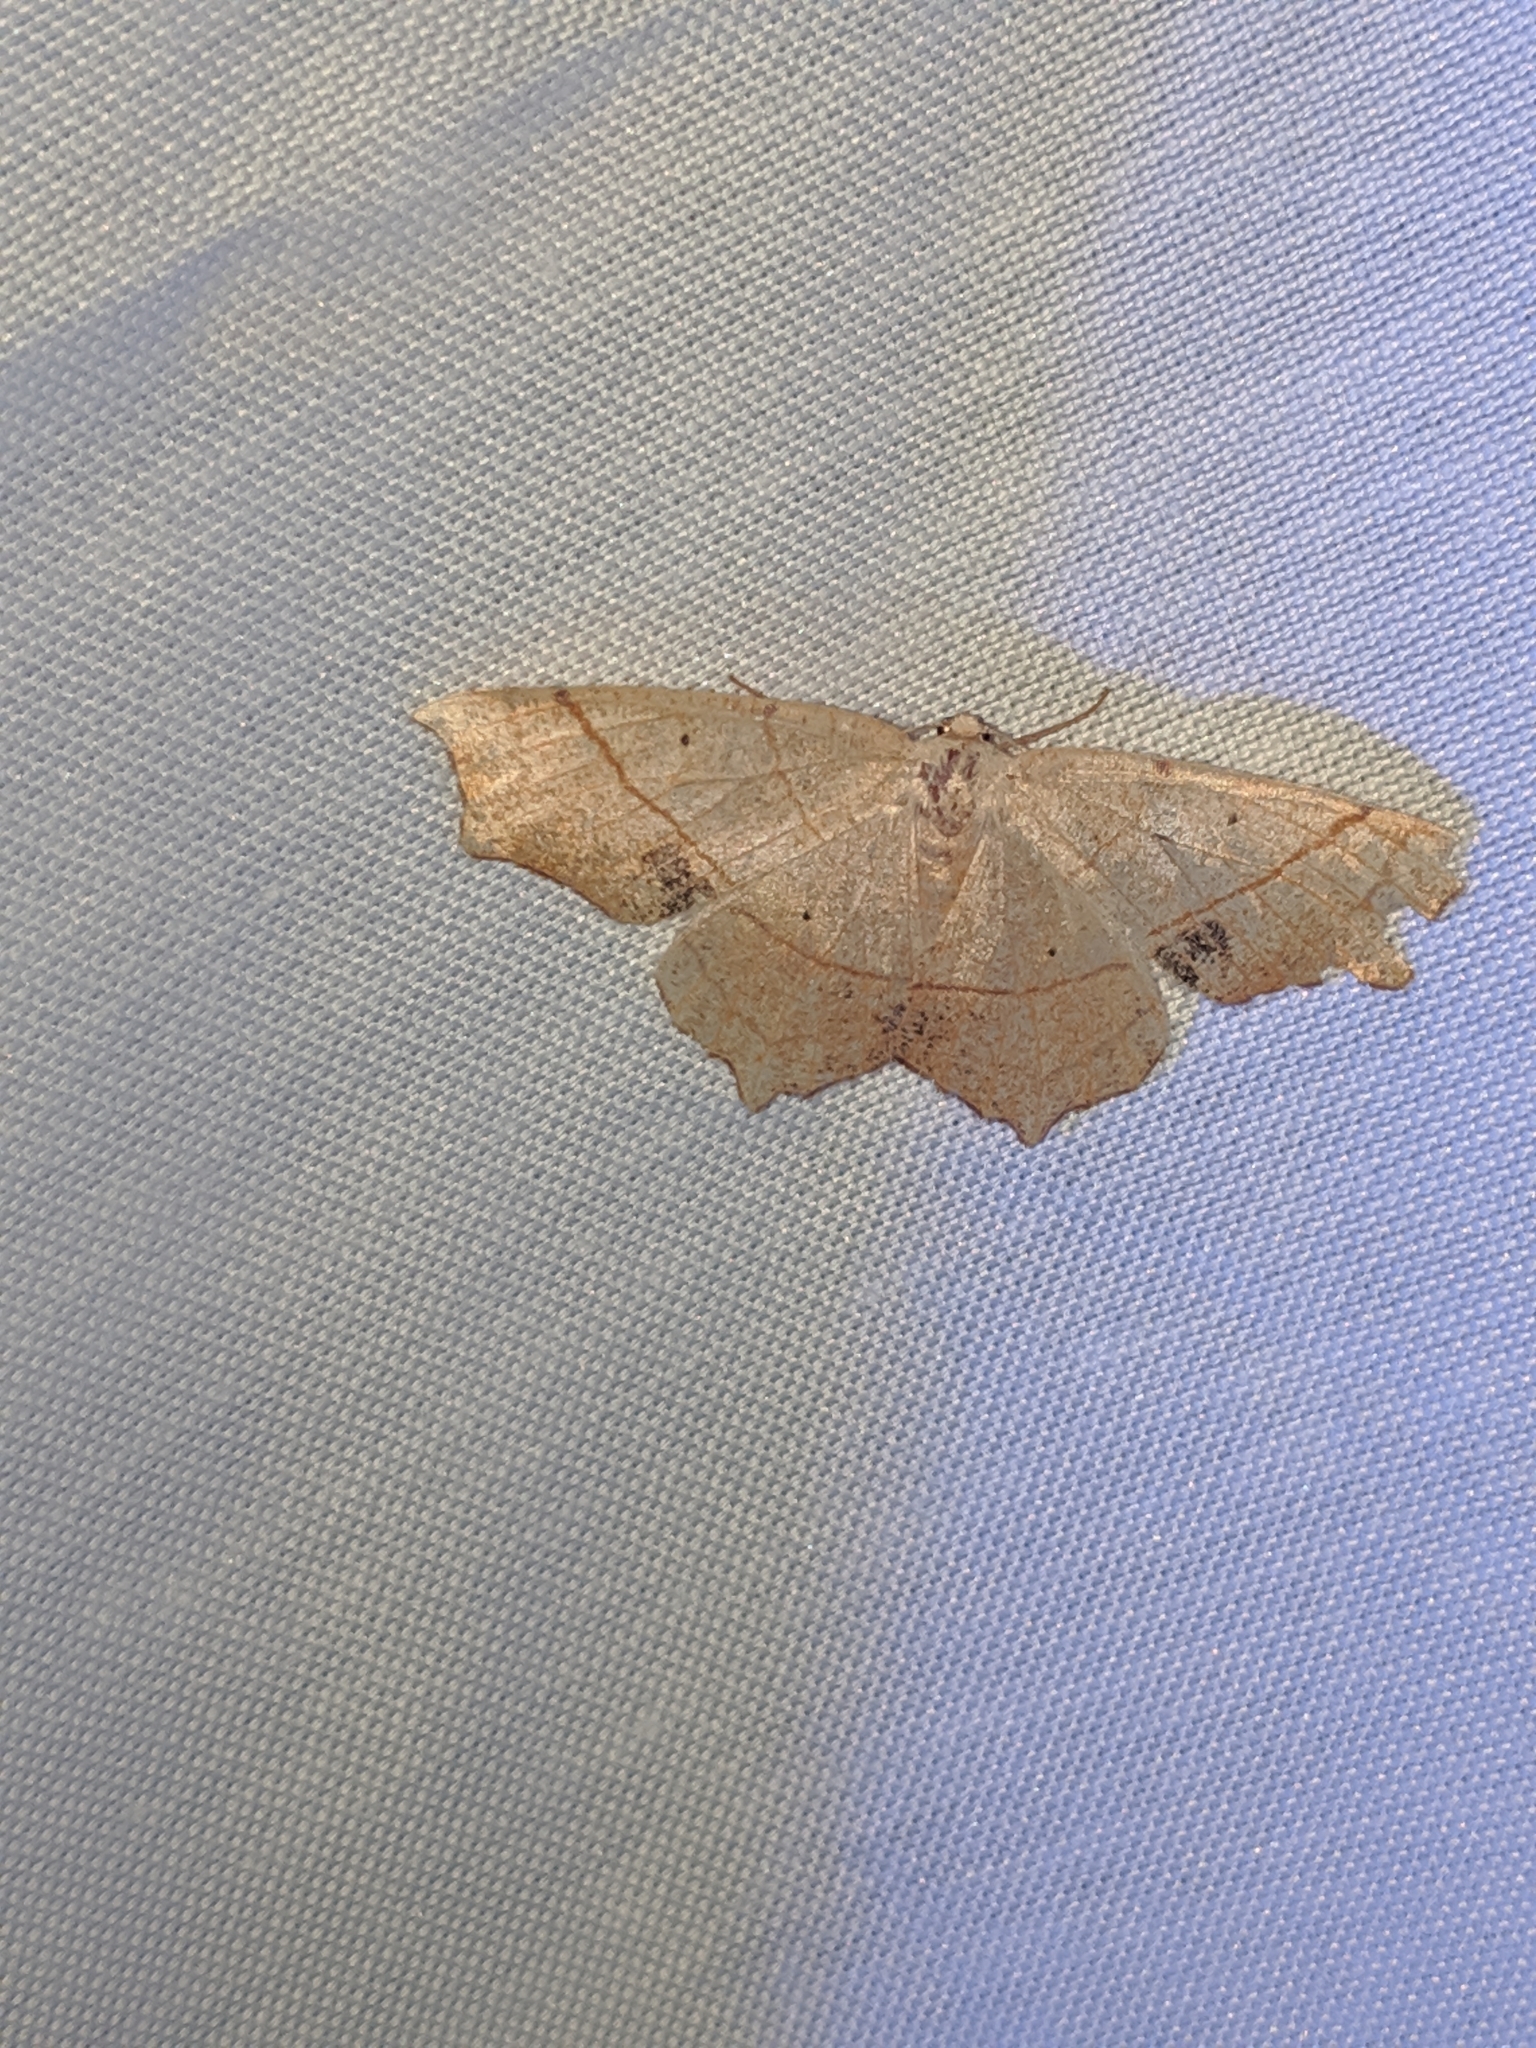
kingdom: Animalia
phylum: Arthropoda
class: Insecta
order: Lepidoptera
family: Geometridae
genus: Besma
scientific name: Besma quercivoraria
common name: Oak besma
